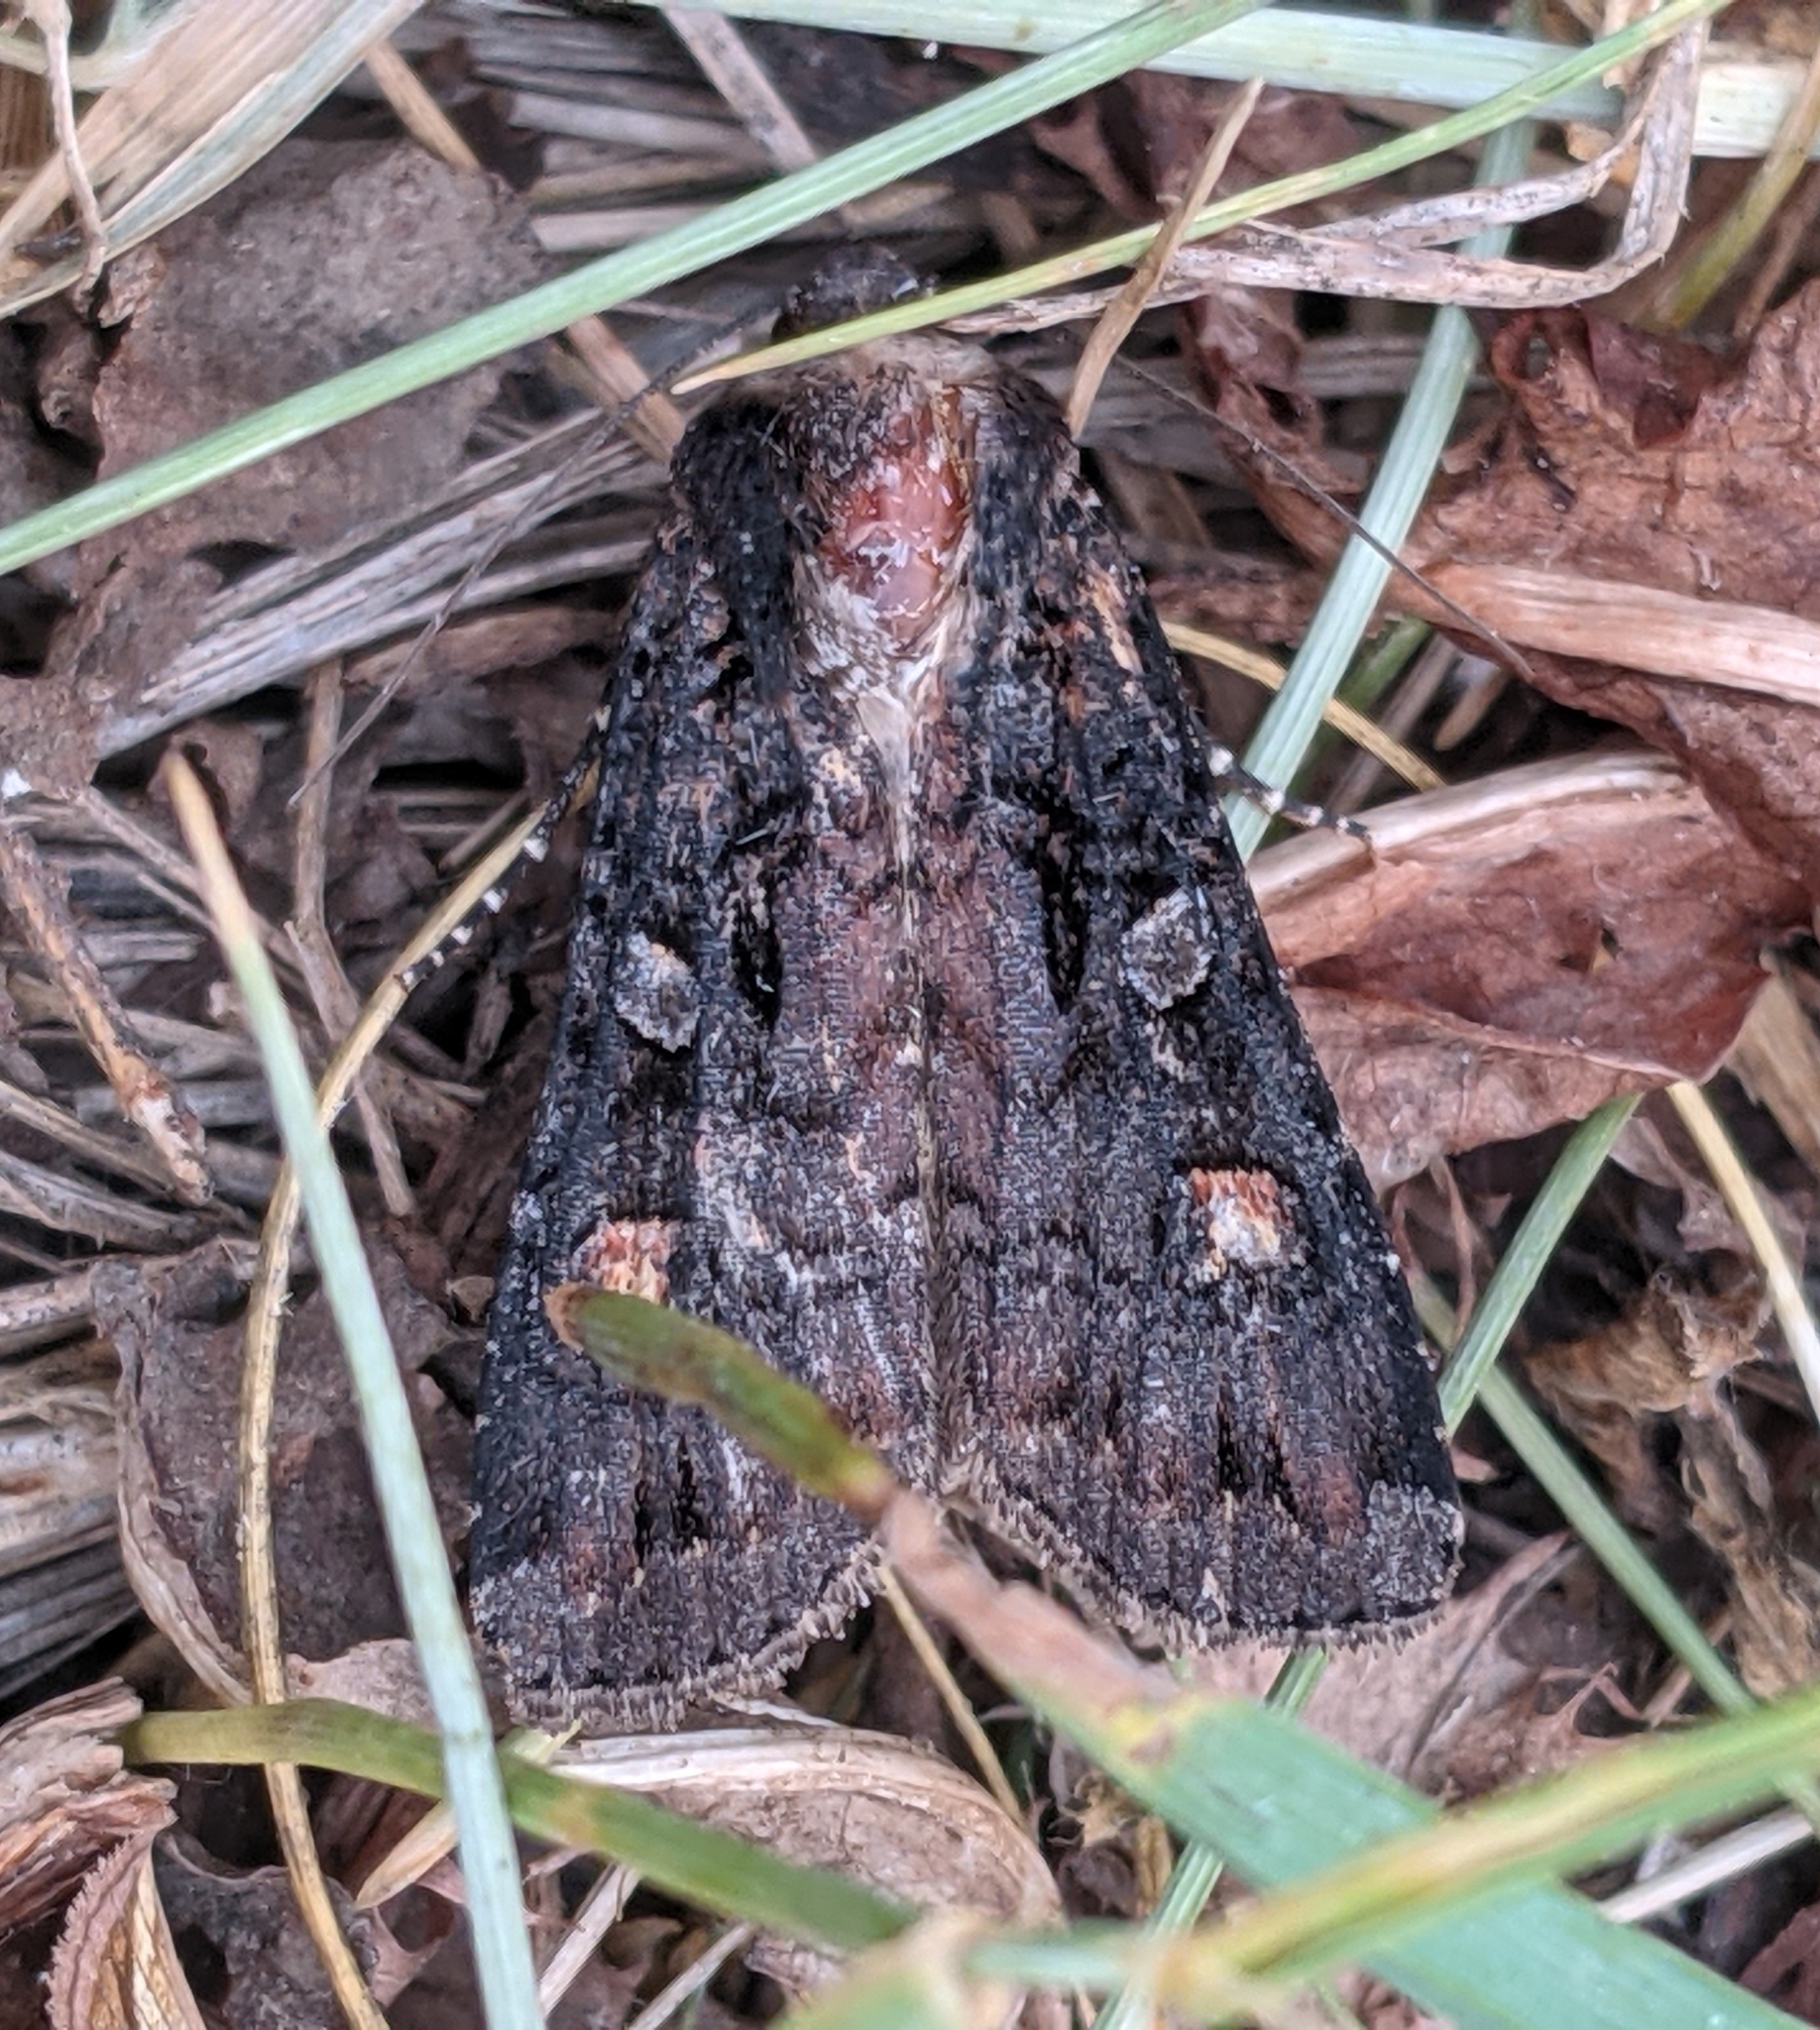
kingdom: Animalia
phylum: Arthropoda
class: Insecta
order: Lepidoptera
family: Noctuidae
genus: Actebia
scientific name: Actebia fennica
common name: Eversmann's rustic
